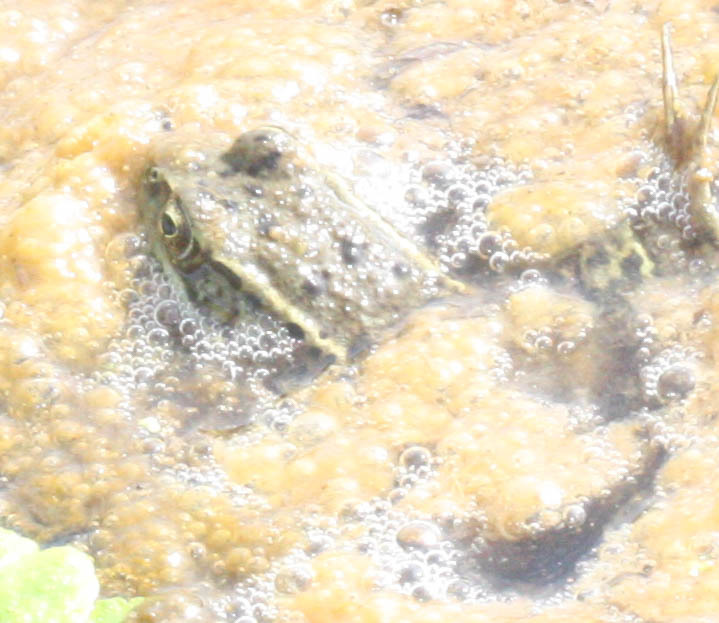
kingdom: Animalia
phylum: Chordata
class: Amphibia
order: Anura
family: Ranidae
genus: Rana
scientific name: Rana draytonii
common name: California red-legged frog
